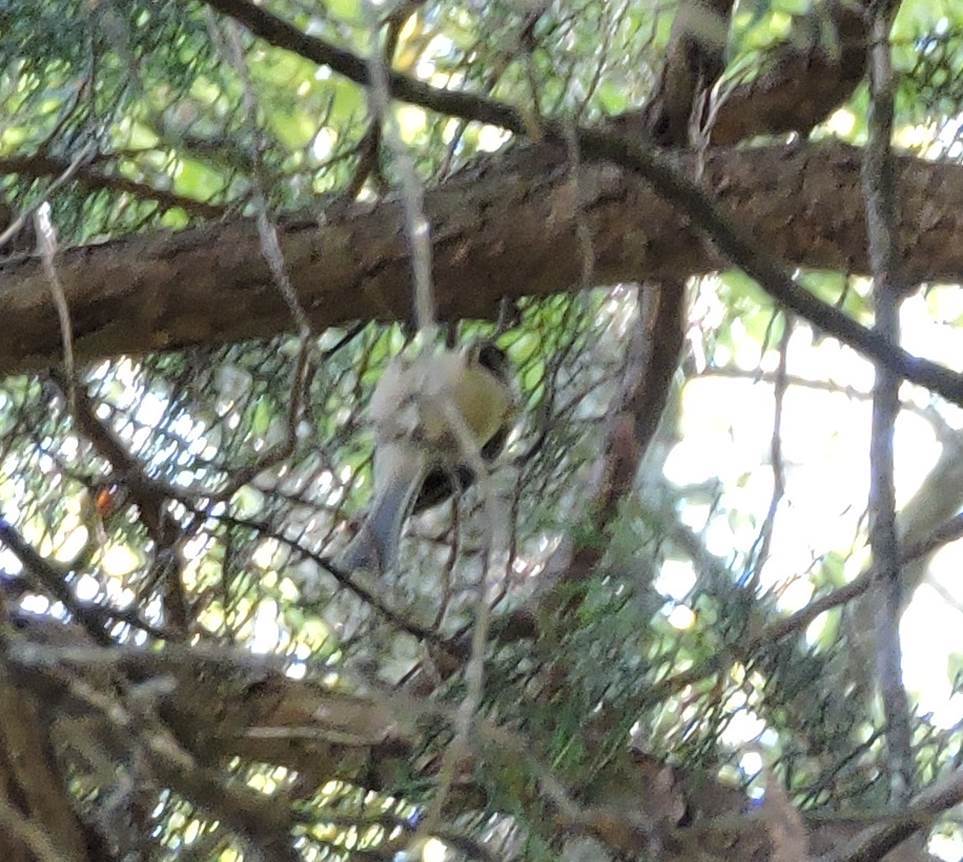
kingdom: Animalia
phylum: Chordata
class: Aves
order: Passeriformes
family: Paridae
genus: Poecile
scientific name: Poecile carolinensis
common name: Carolina chickadee
